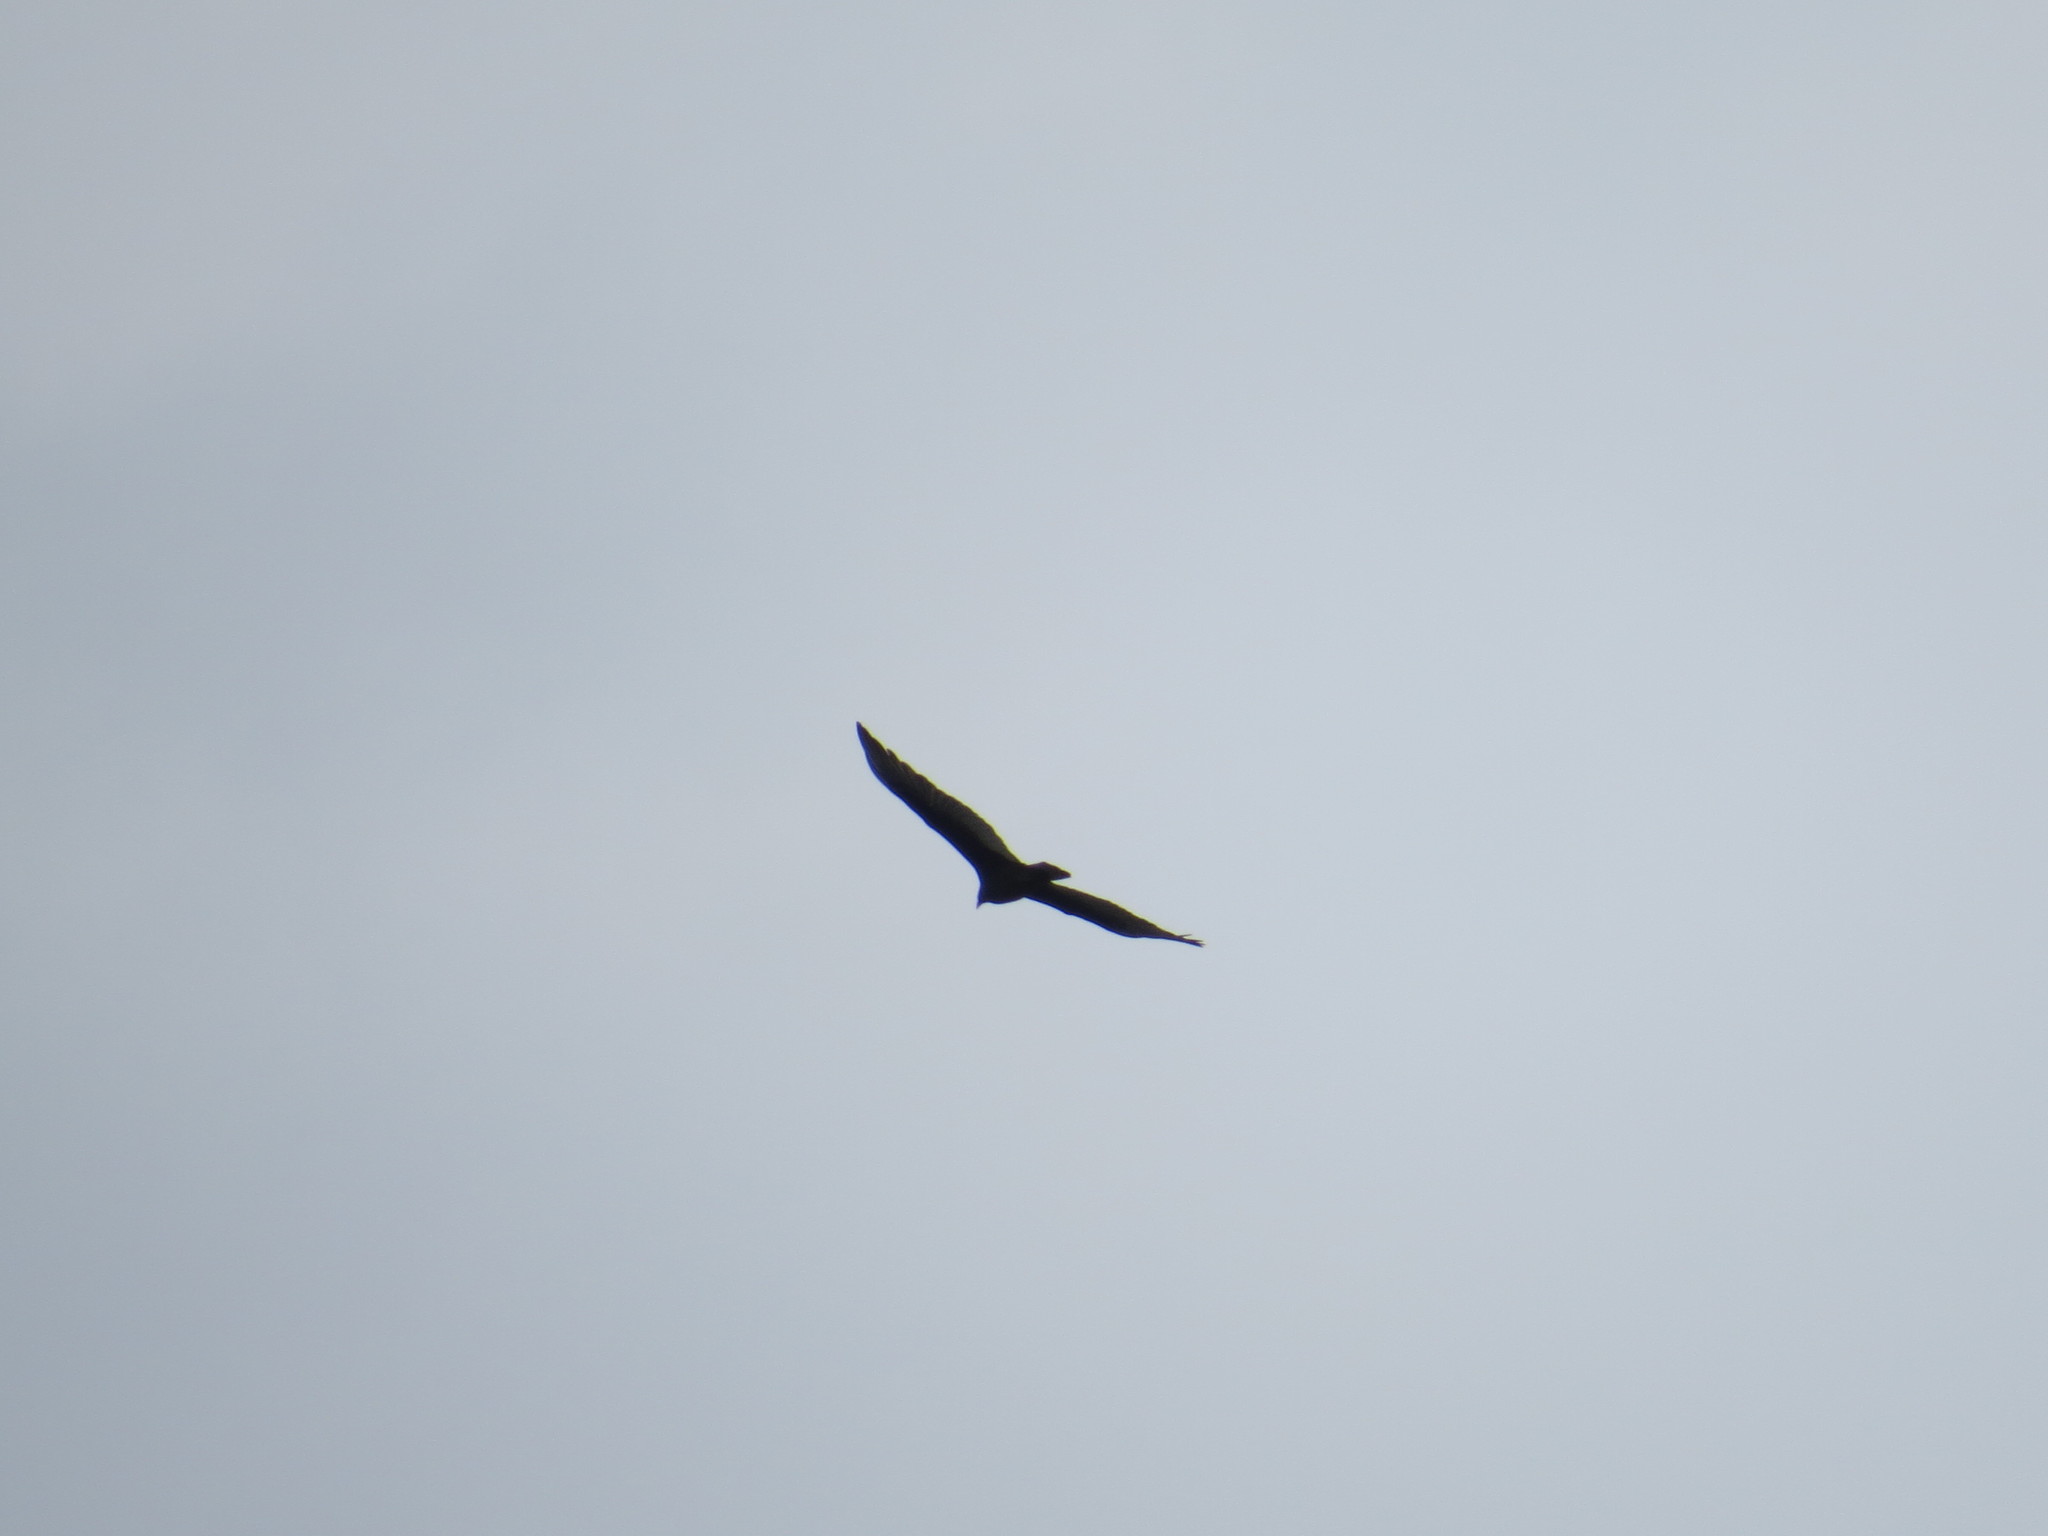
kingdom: Animalia
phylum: Chordata
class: Aves
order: Accipitriformes
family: Cathartidae
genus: Cathartes
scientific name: Cathartes aura
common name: Turkey vulture
